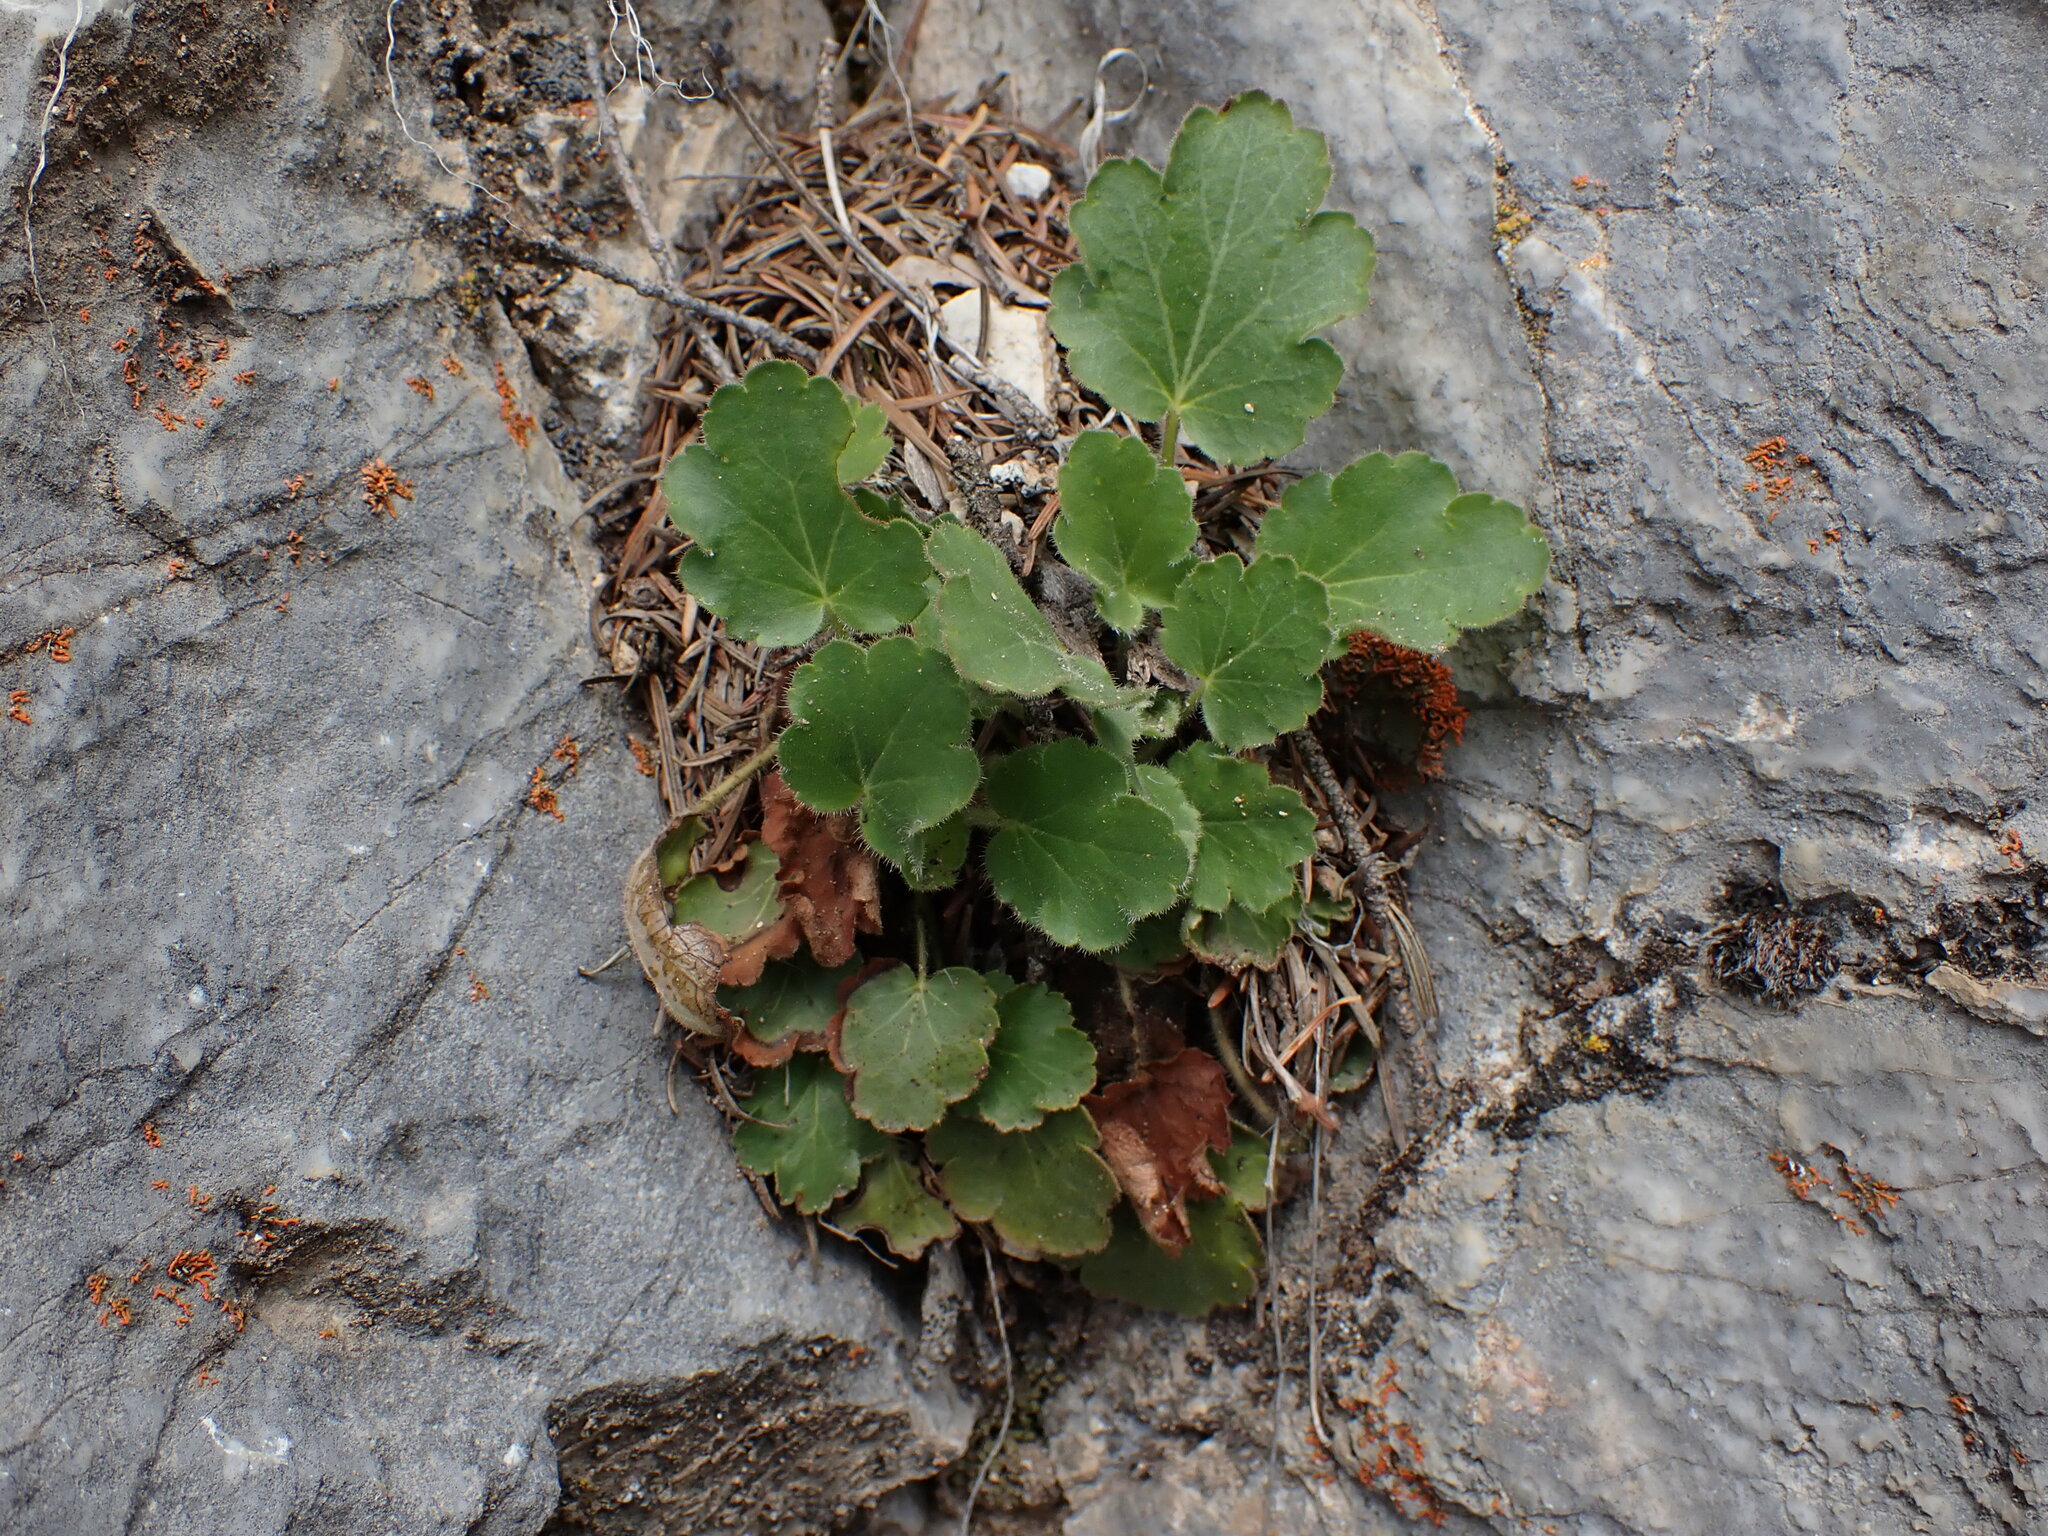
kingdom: Plantae
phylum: Tracheophyta
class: Magnoliopsida
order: Saxifragales
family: Saxifragaceae
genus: Heuchera
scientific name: Heuchera cylindrica
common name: Mat alumroot
